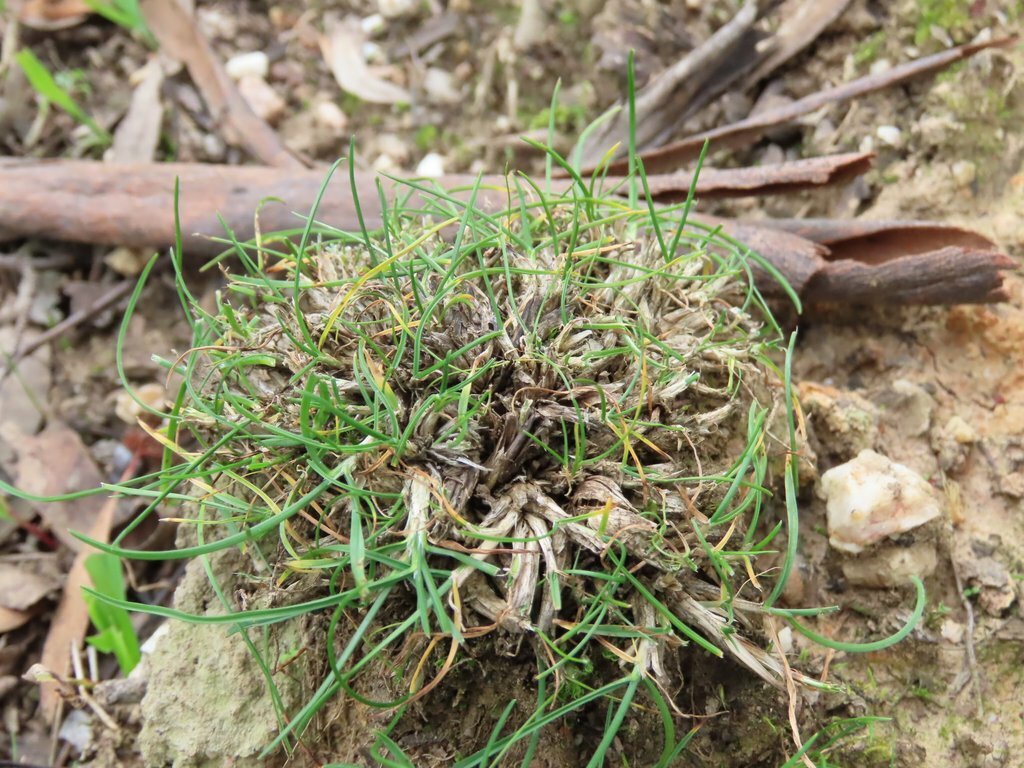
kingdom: Plantae
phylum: Tracheophyta
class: Liliopsida
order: Poales
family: Poaceae
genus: Poa
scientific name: Poa bulbosa
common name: Bulbous bluegrass
